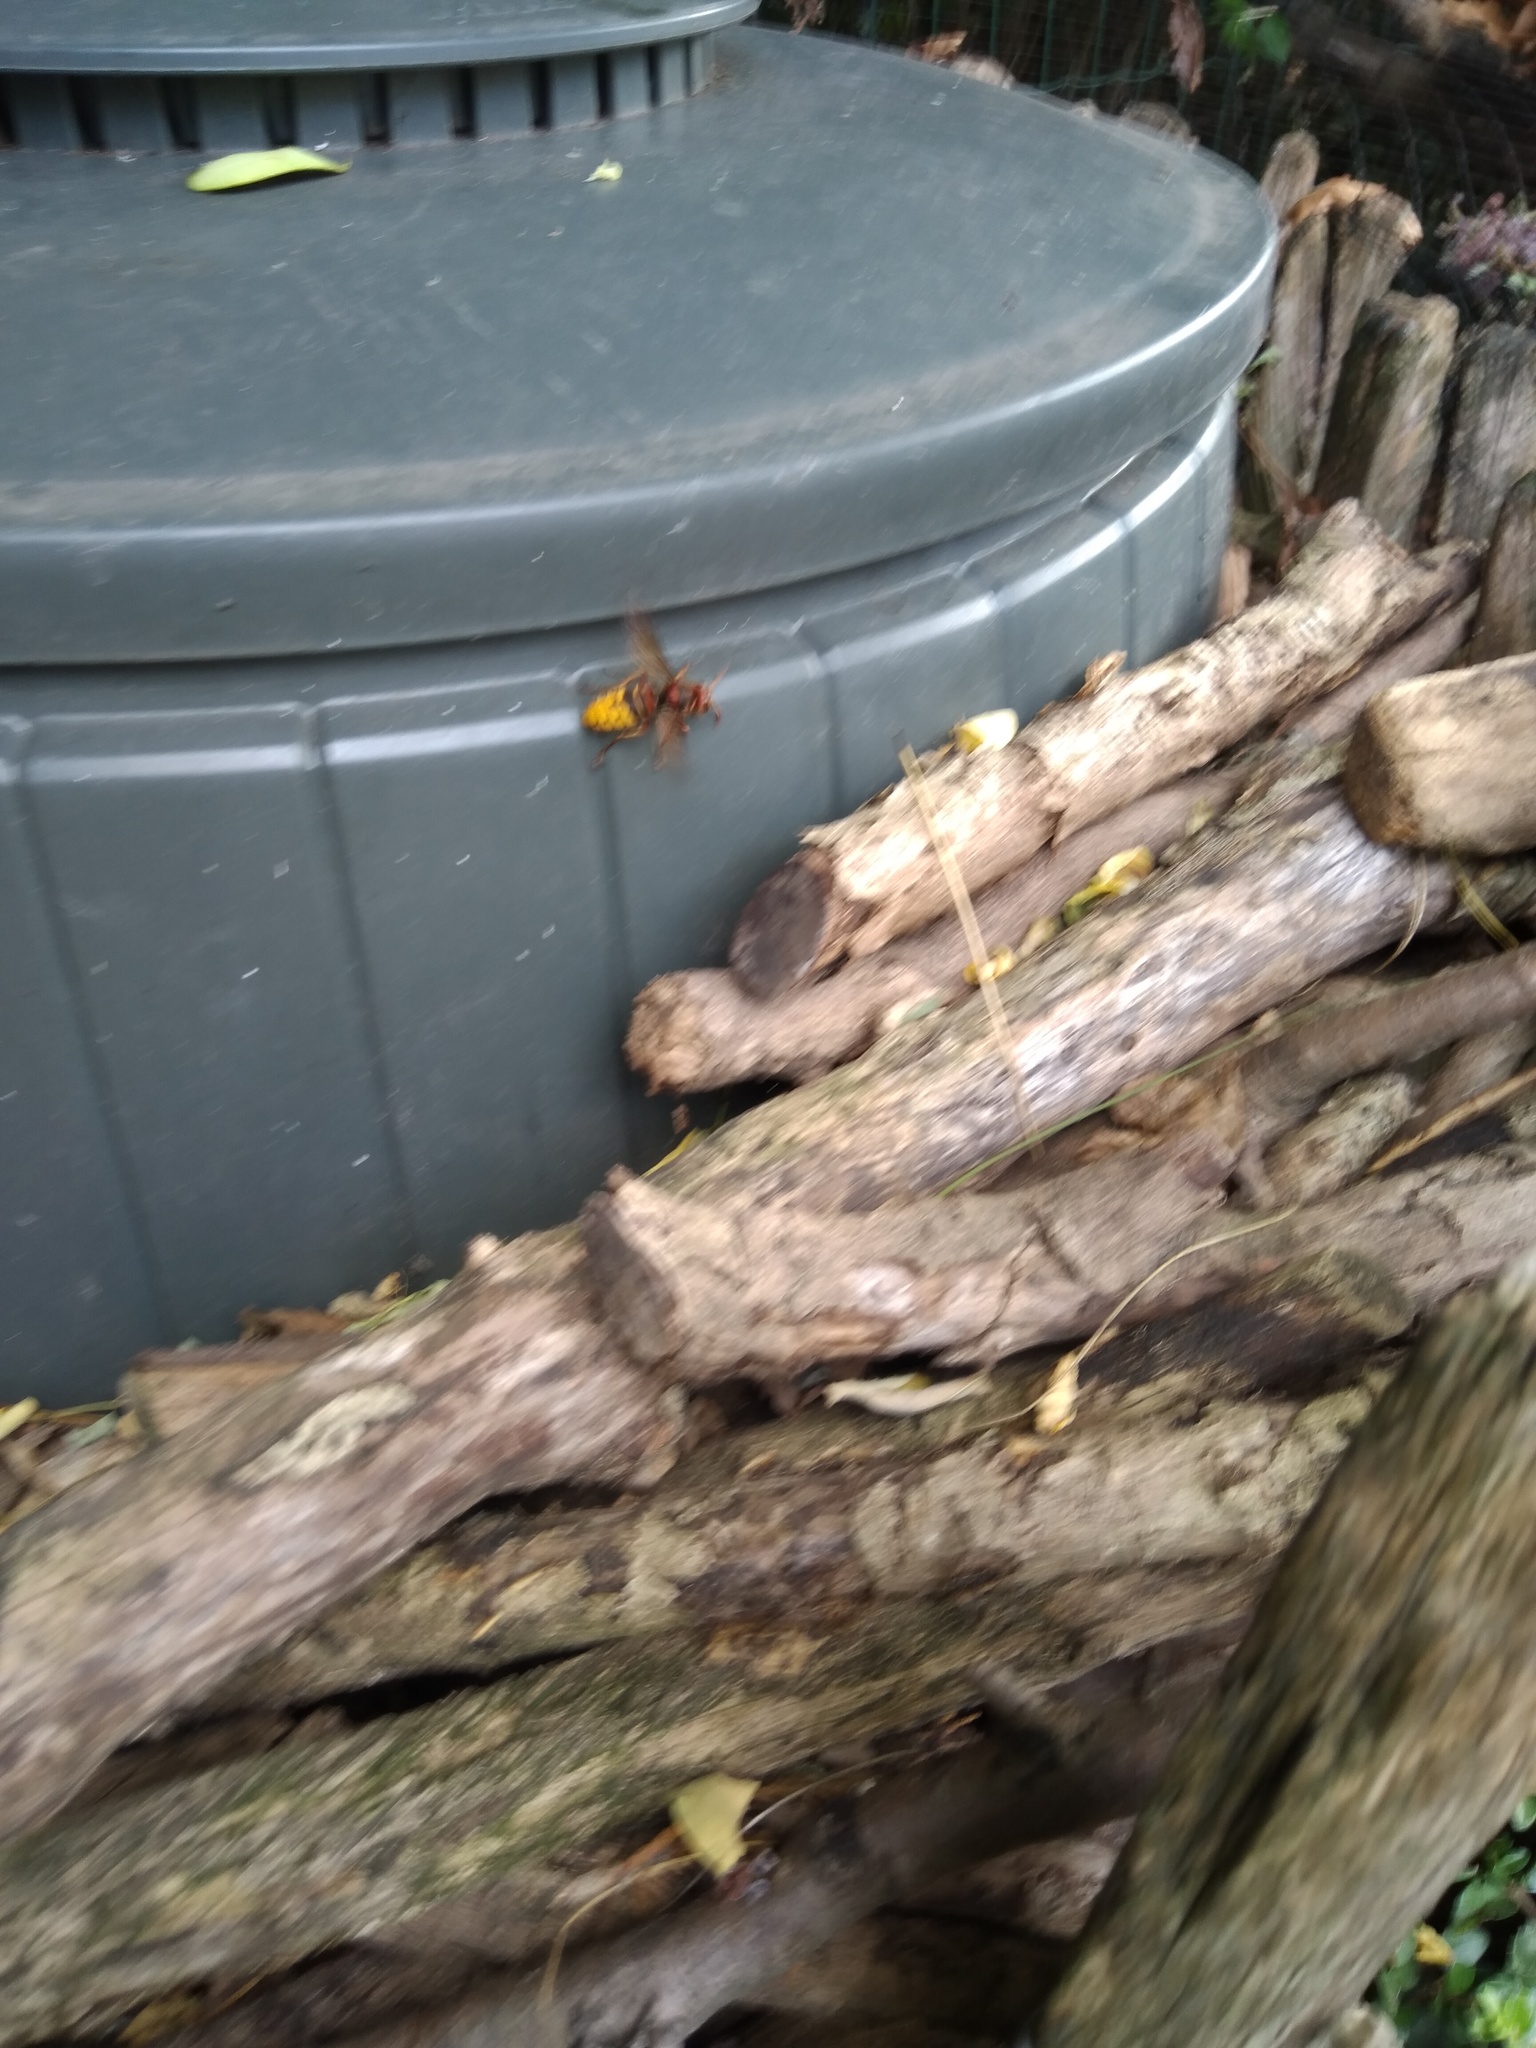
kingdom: Animalia
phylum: Arthropoda
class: Insecta
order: Hymenoptera
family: Vespidae
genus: Vespa
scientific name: Vespa crabro
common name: Hornet
